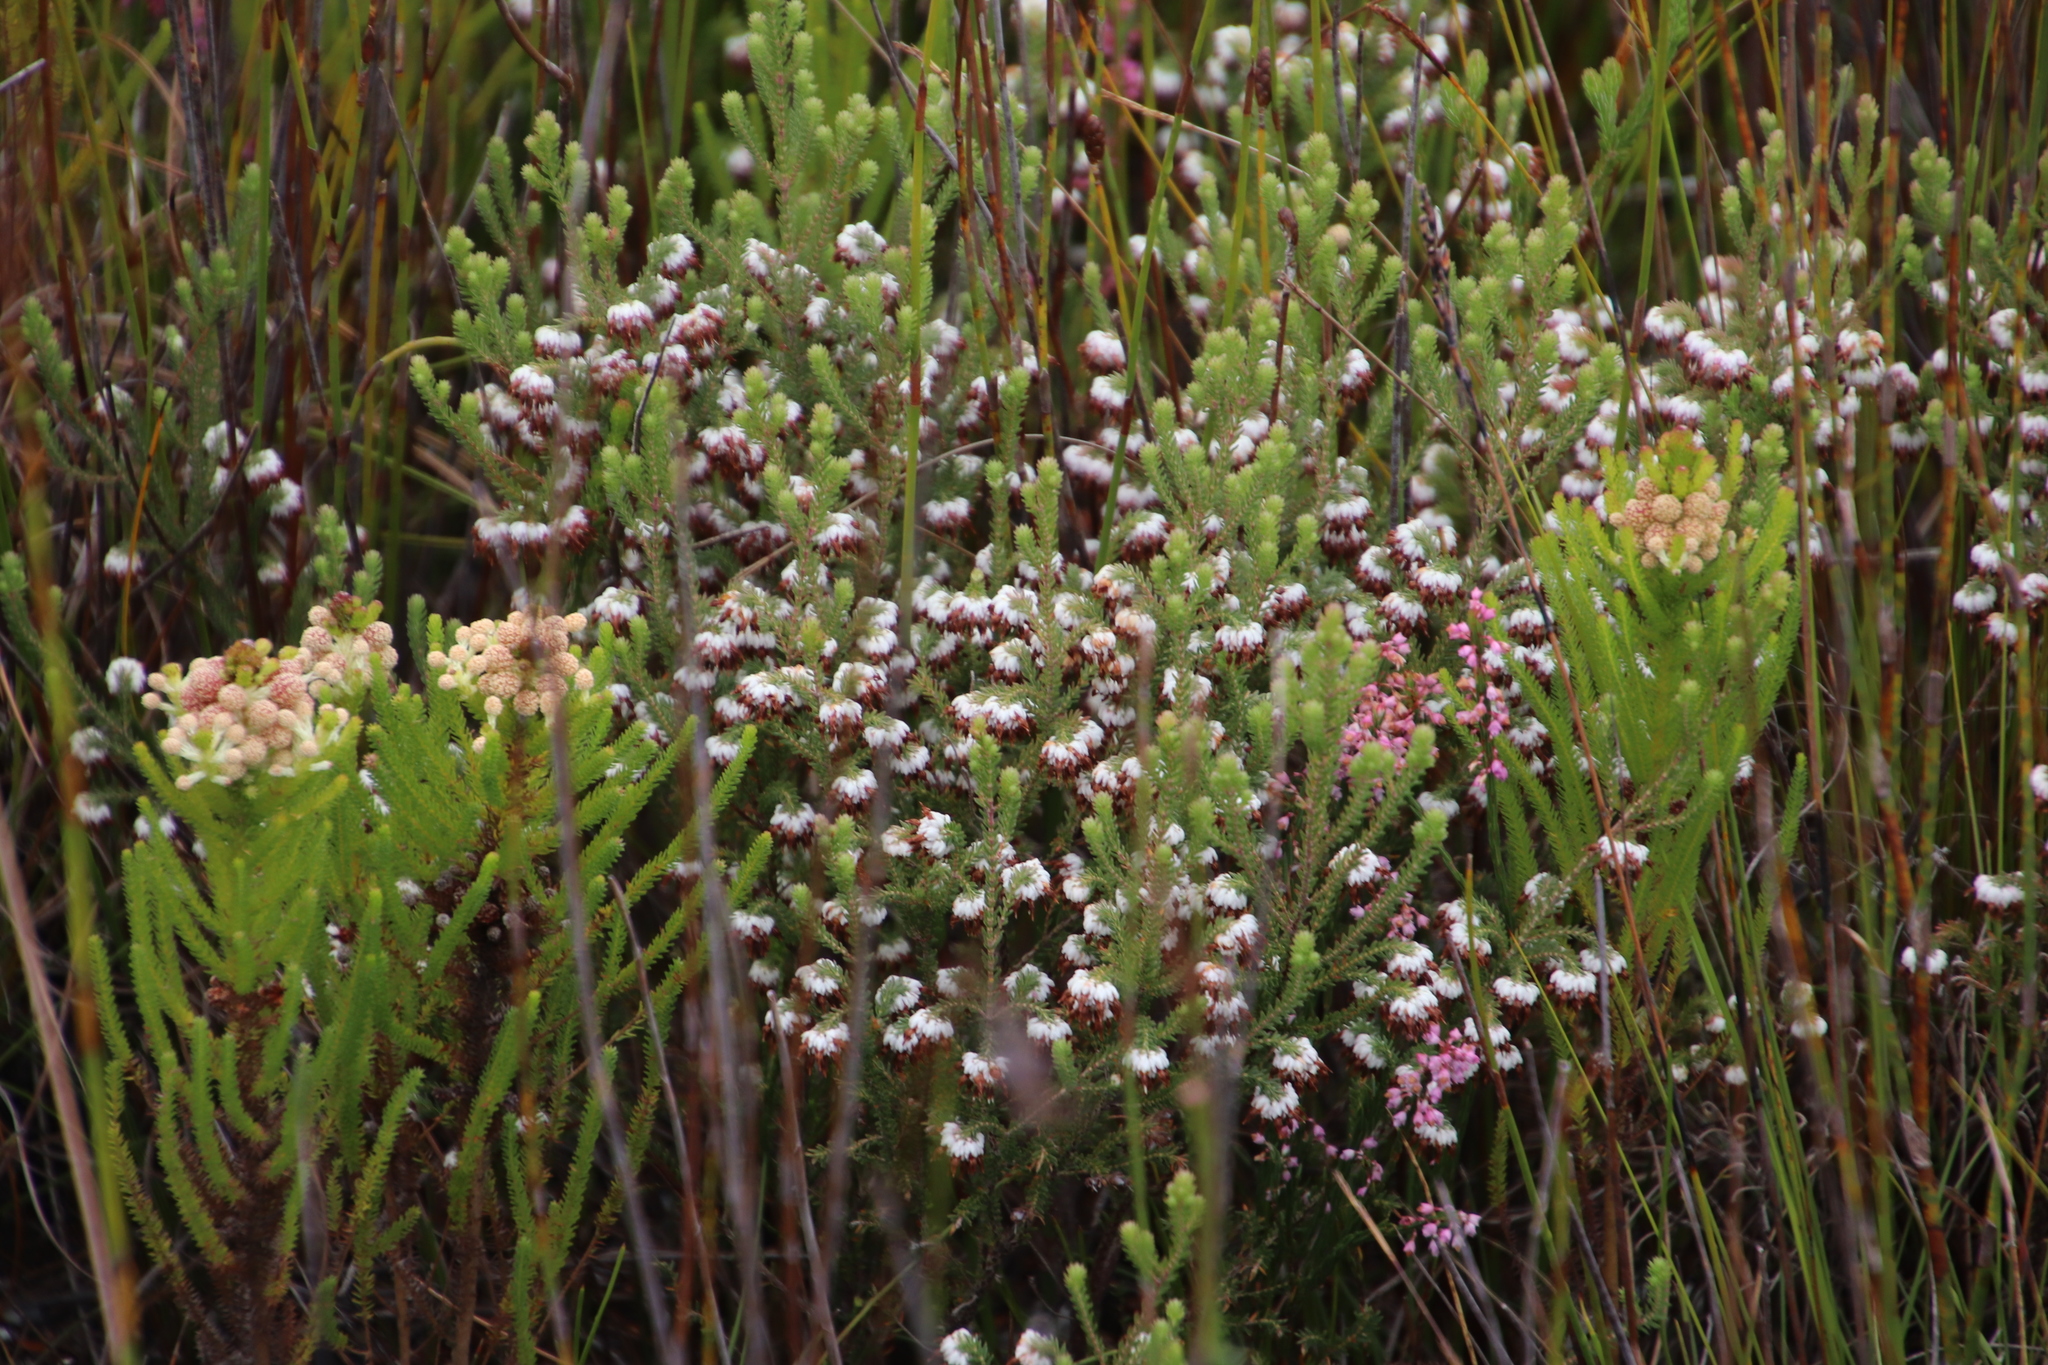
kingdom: Plantae
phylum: Tracheophyta
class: Magnoliopsida
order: Ericales
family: Ericaceae
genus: Erica
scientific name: Erica cumuliflora
